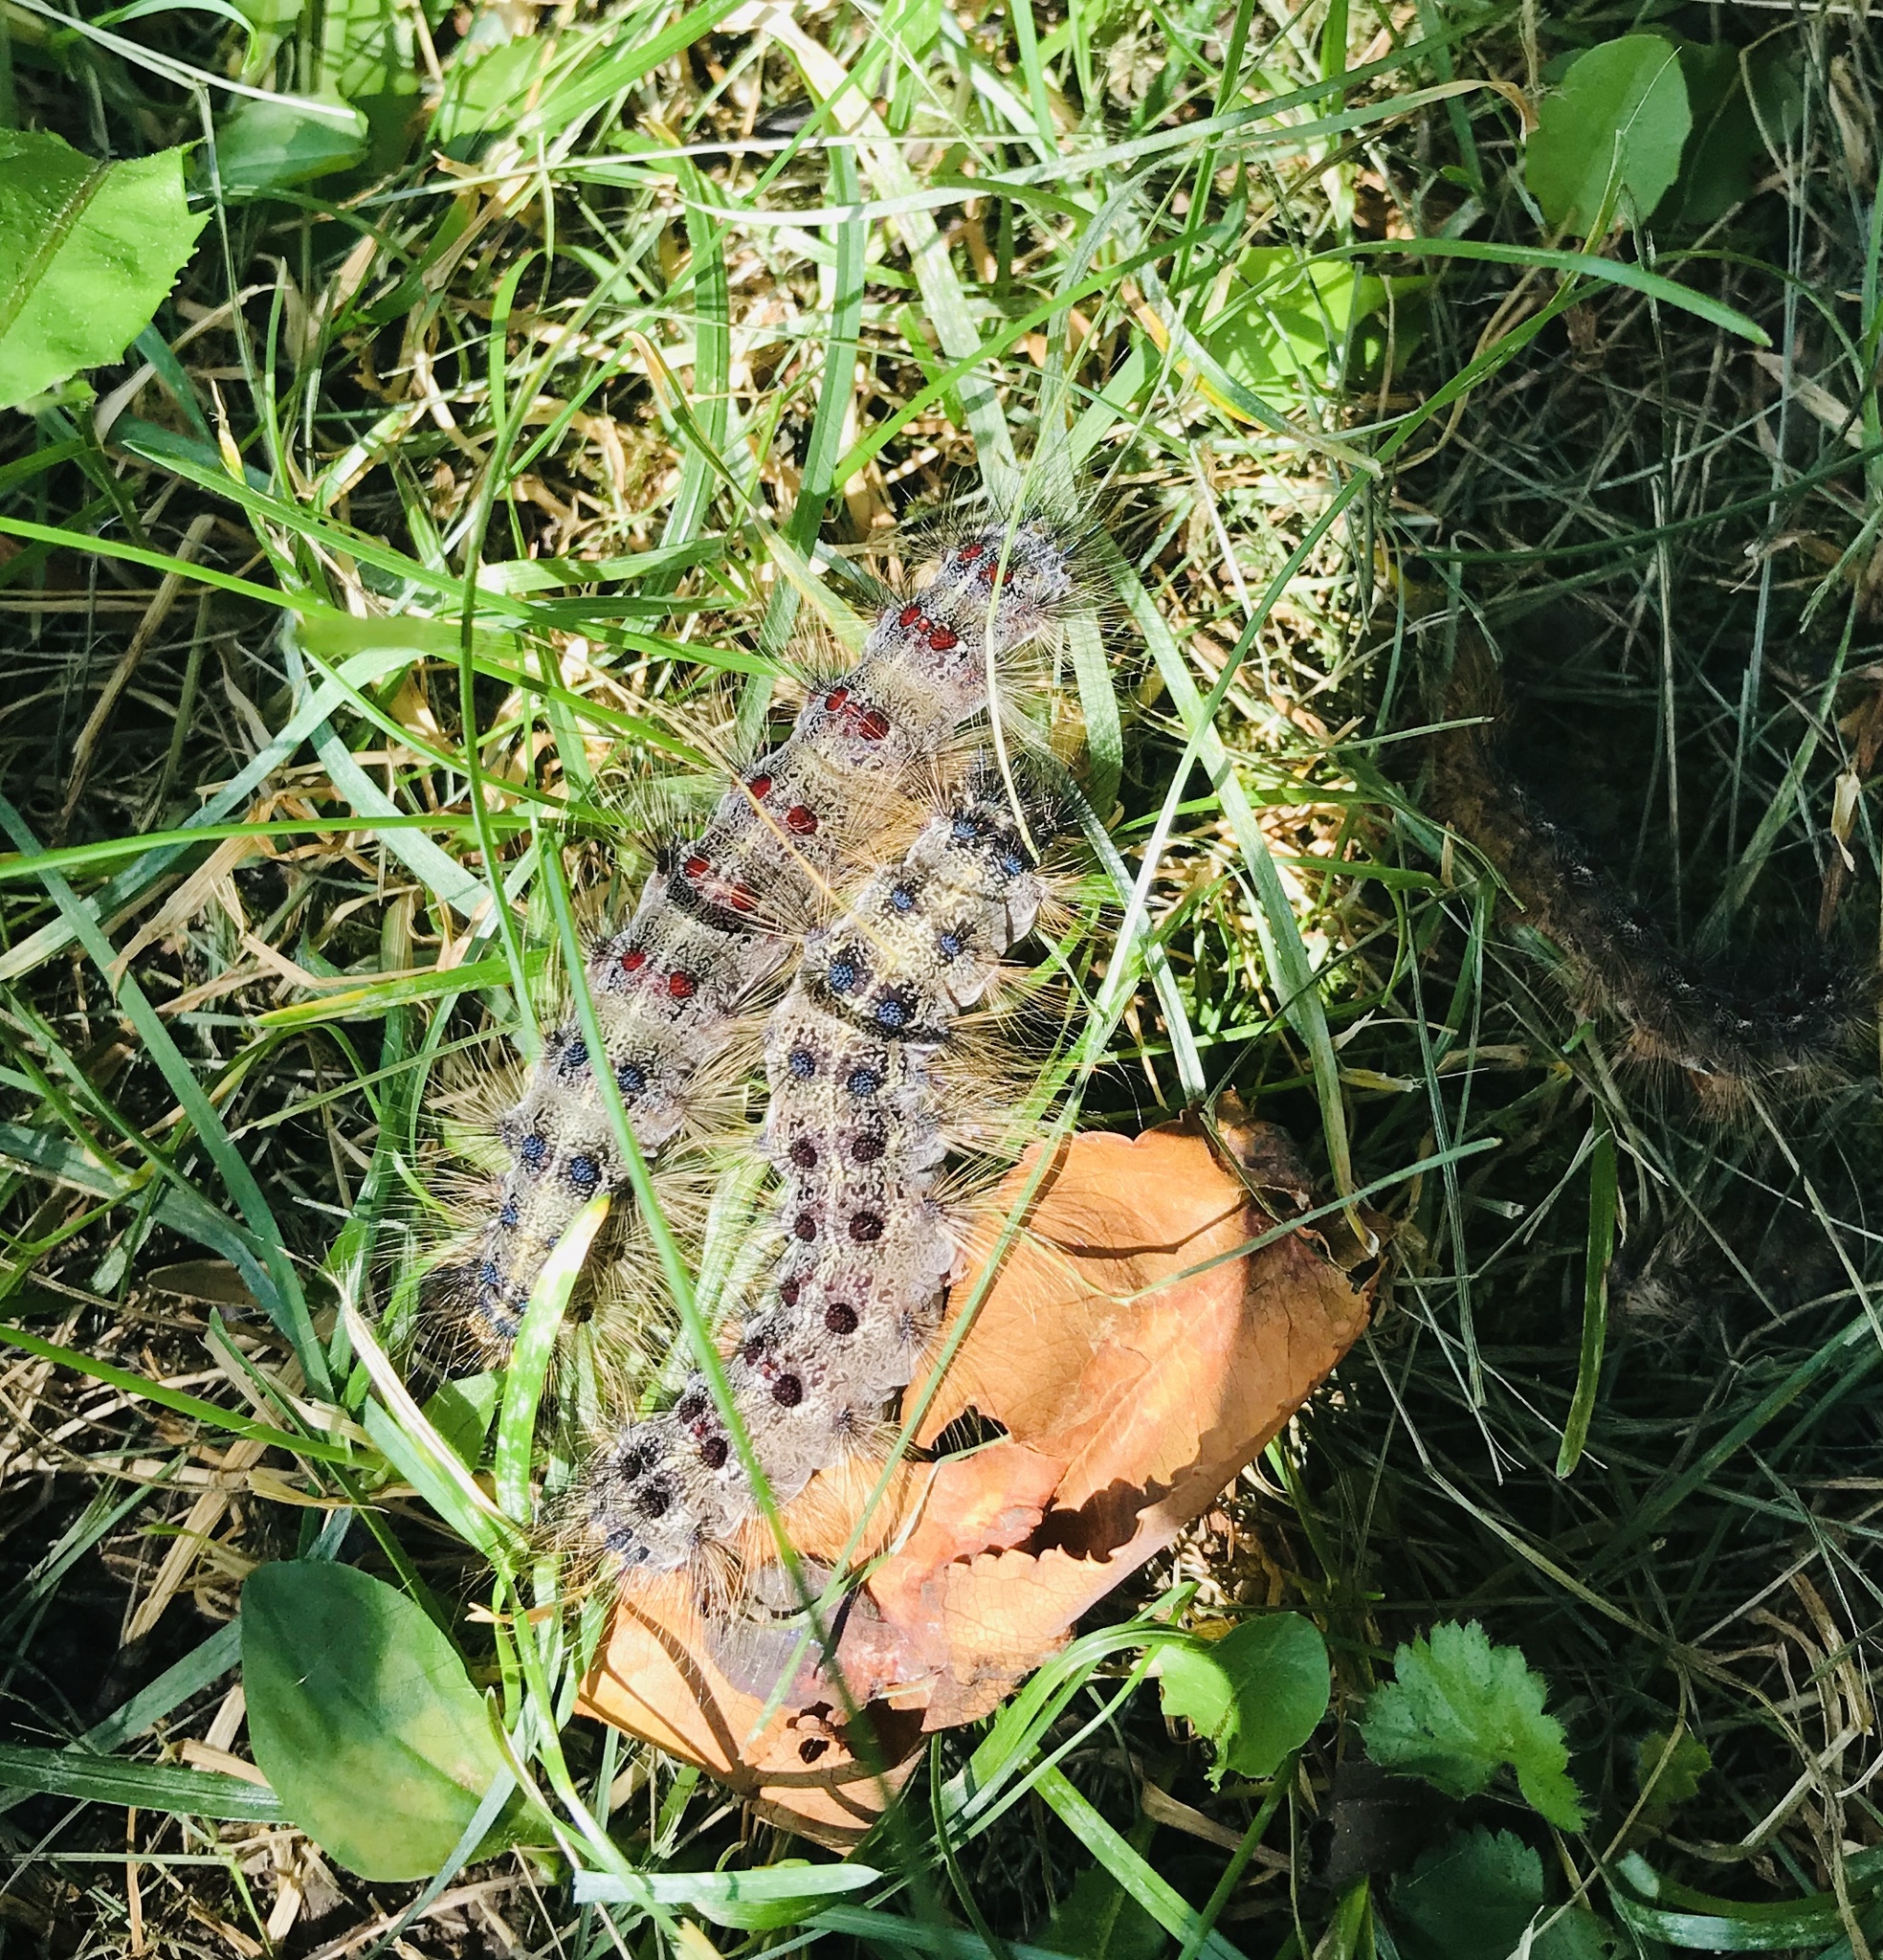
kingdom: Animalia
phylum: Arthropoda
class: Insecta
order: Lepidoptera
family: Erebidae
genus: Lymantria
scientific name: Lymantria dispar
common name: Gypsy moth
